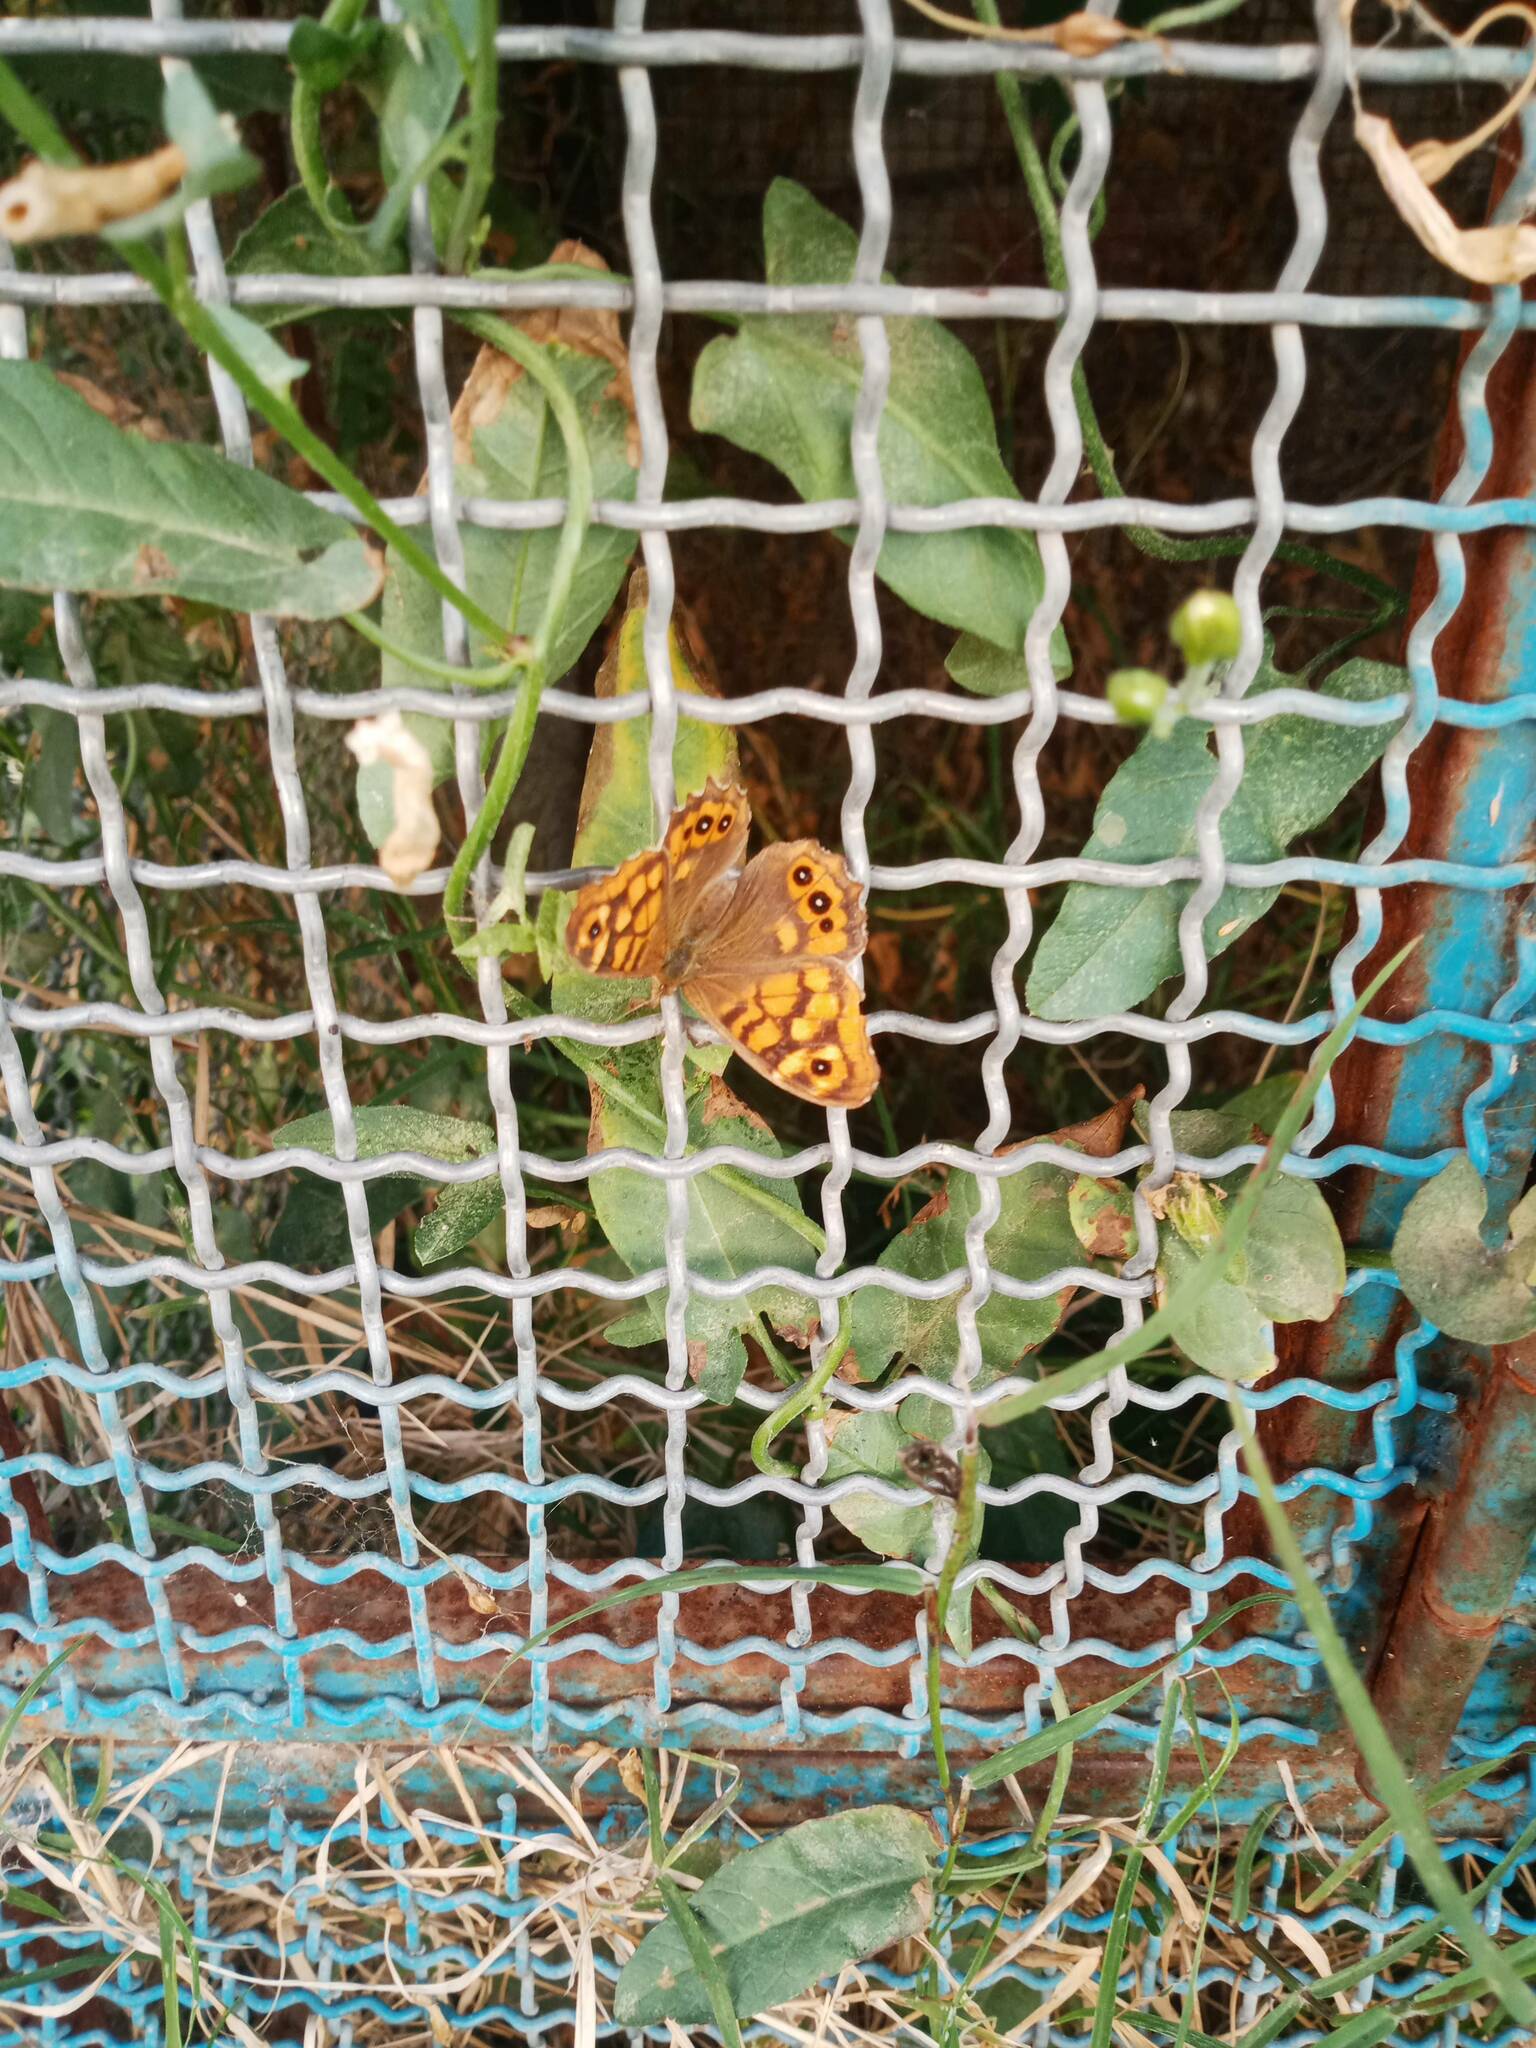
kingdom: Animalia
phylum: Arthropoda
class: Insecta
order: Lepidoptera
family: Nymphalidae
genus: Pararge
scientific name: Pararge aegeria
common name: Speckled wood
